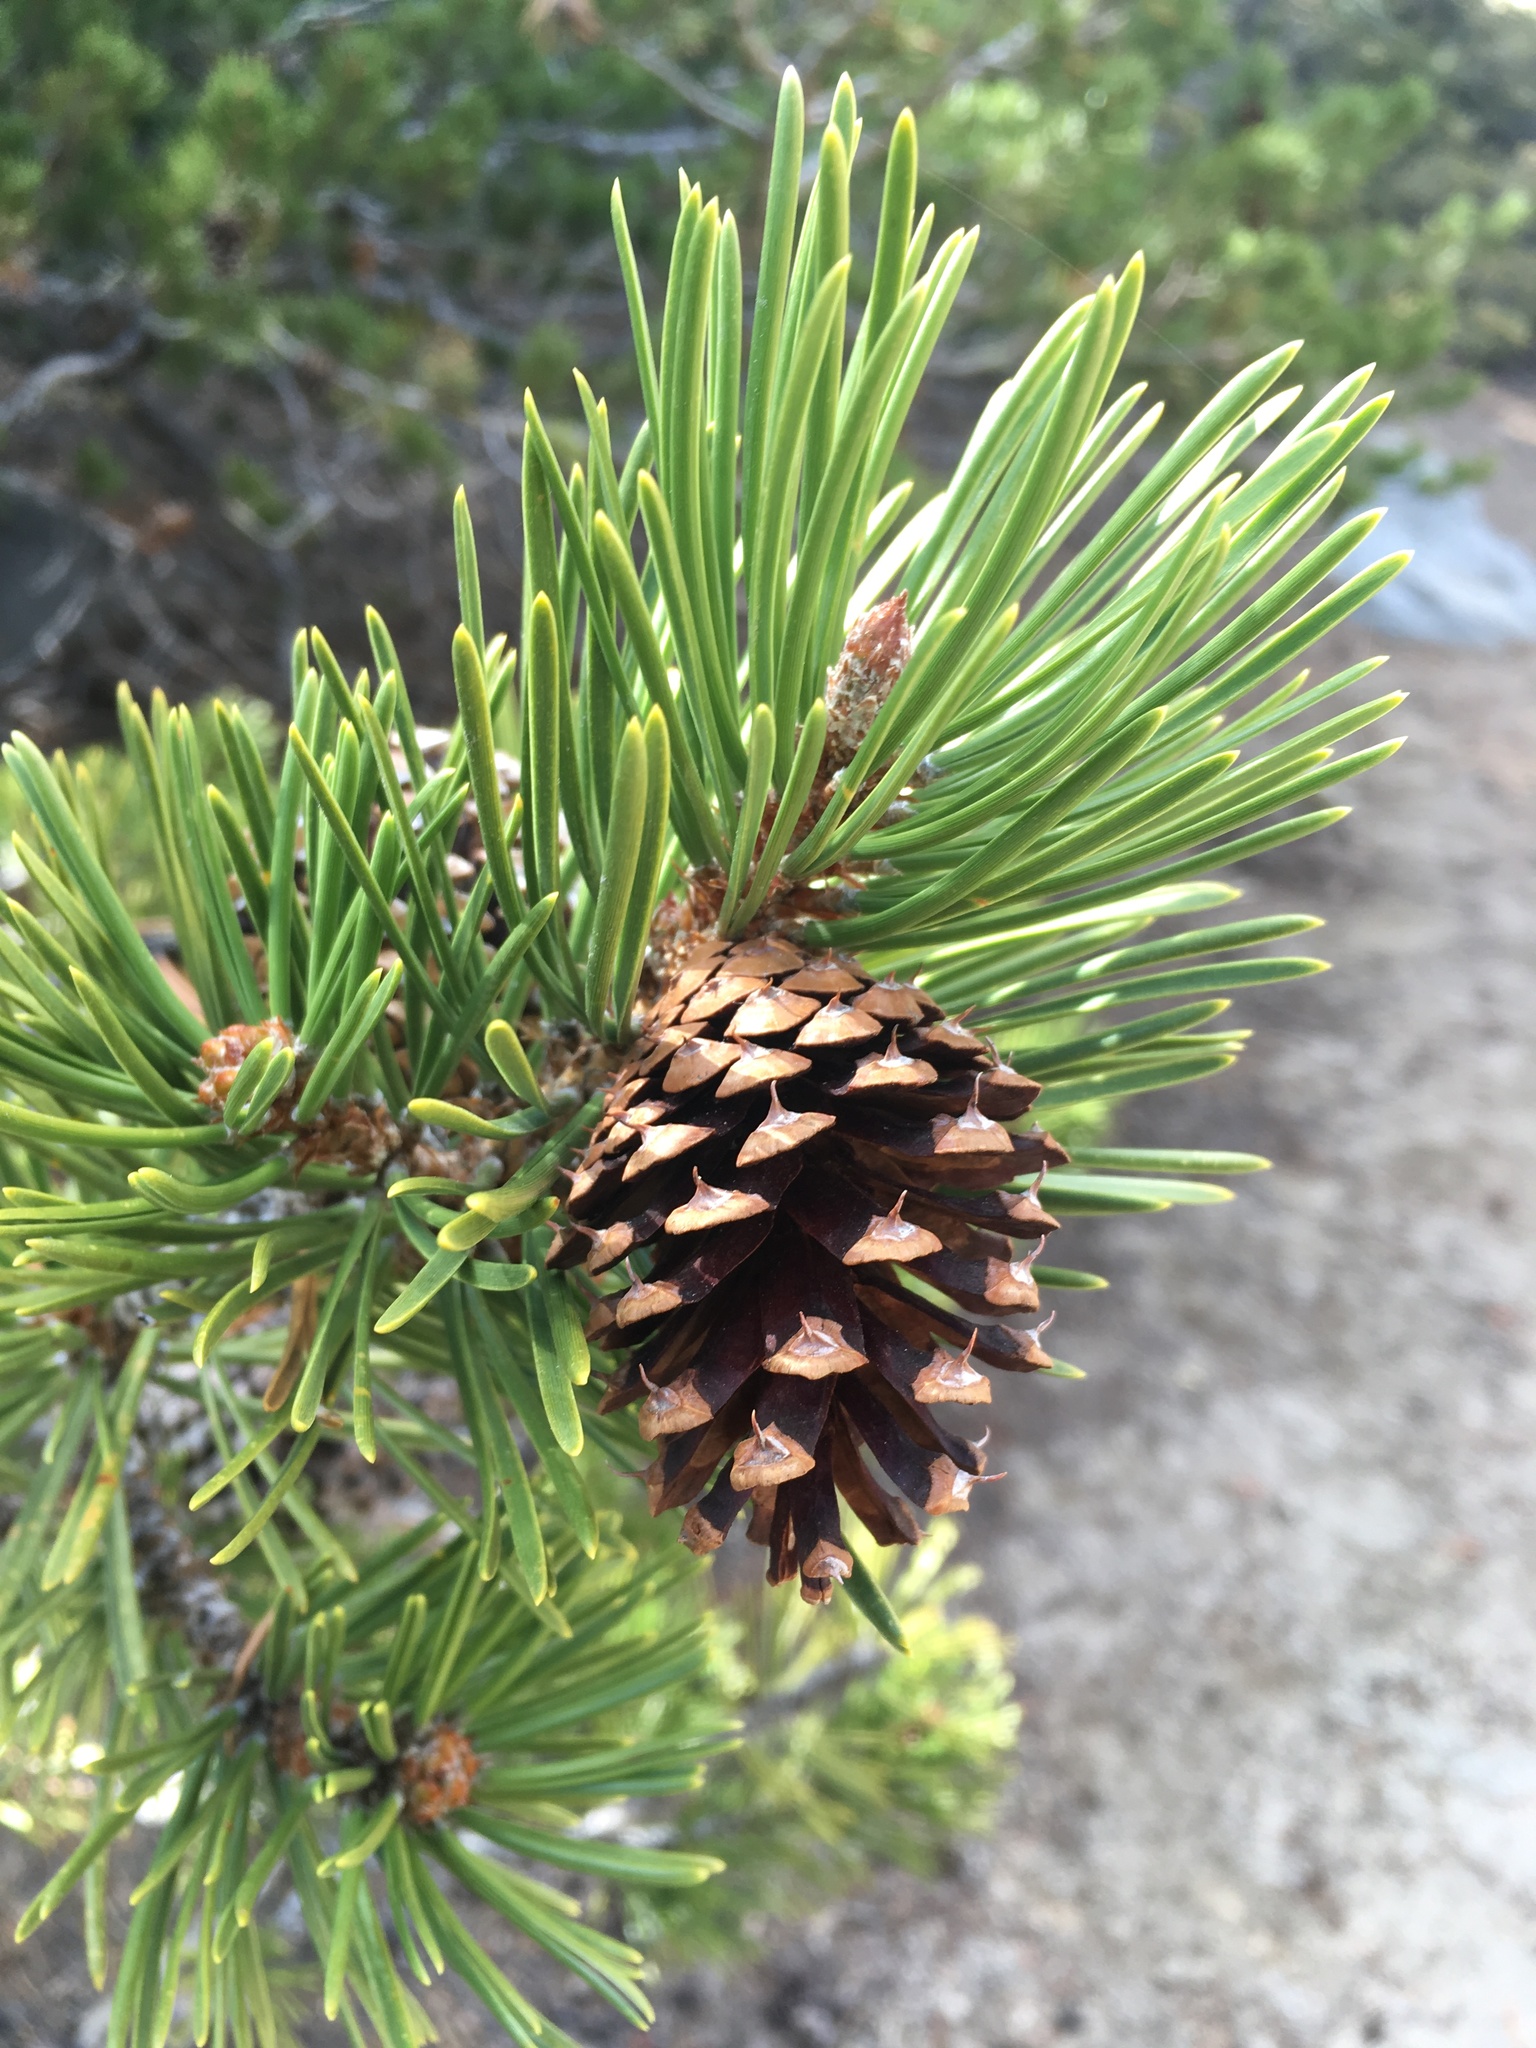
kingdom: Plantae
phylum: Tracheophyta
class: Pinopsida
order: Pinales
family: Pinaceae
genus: Pinus
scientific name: Pinus contorta
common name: Lodgepole pine
